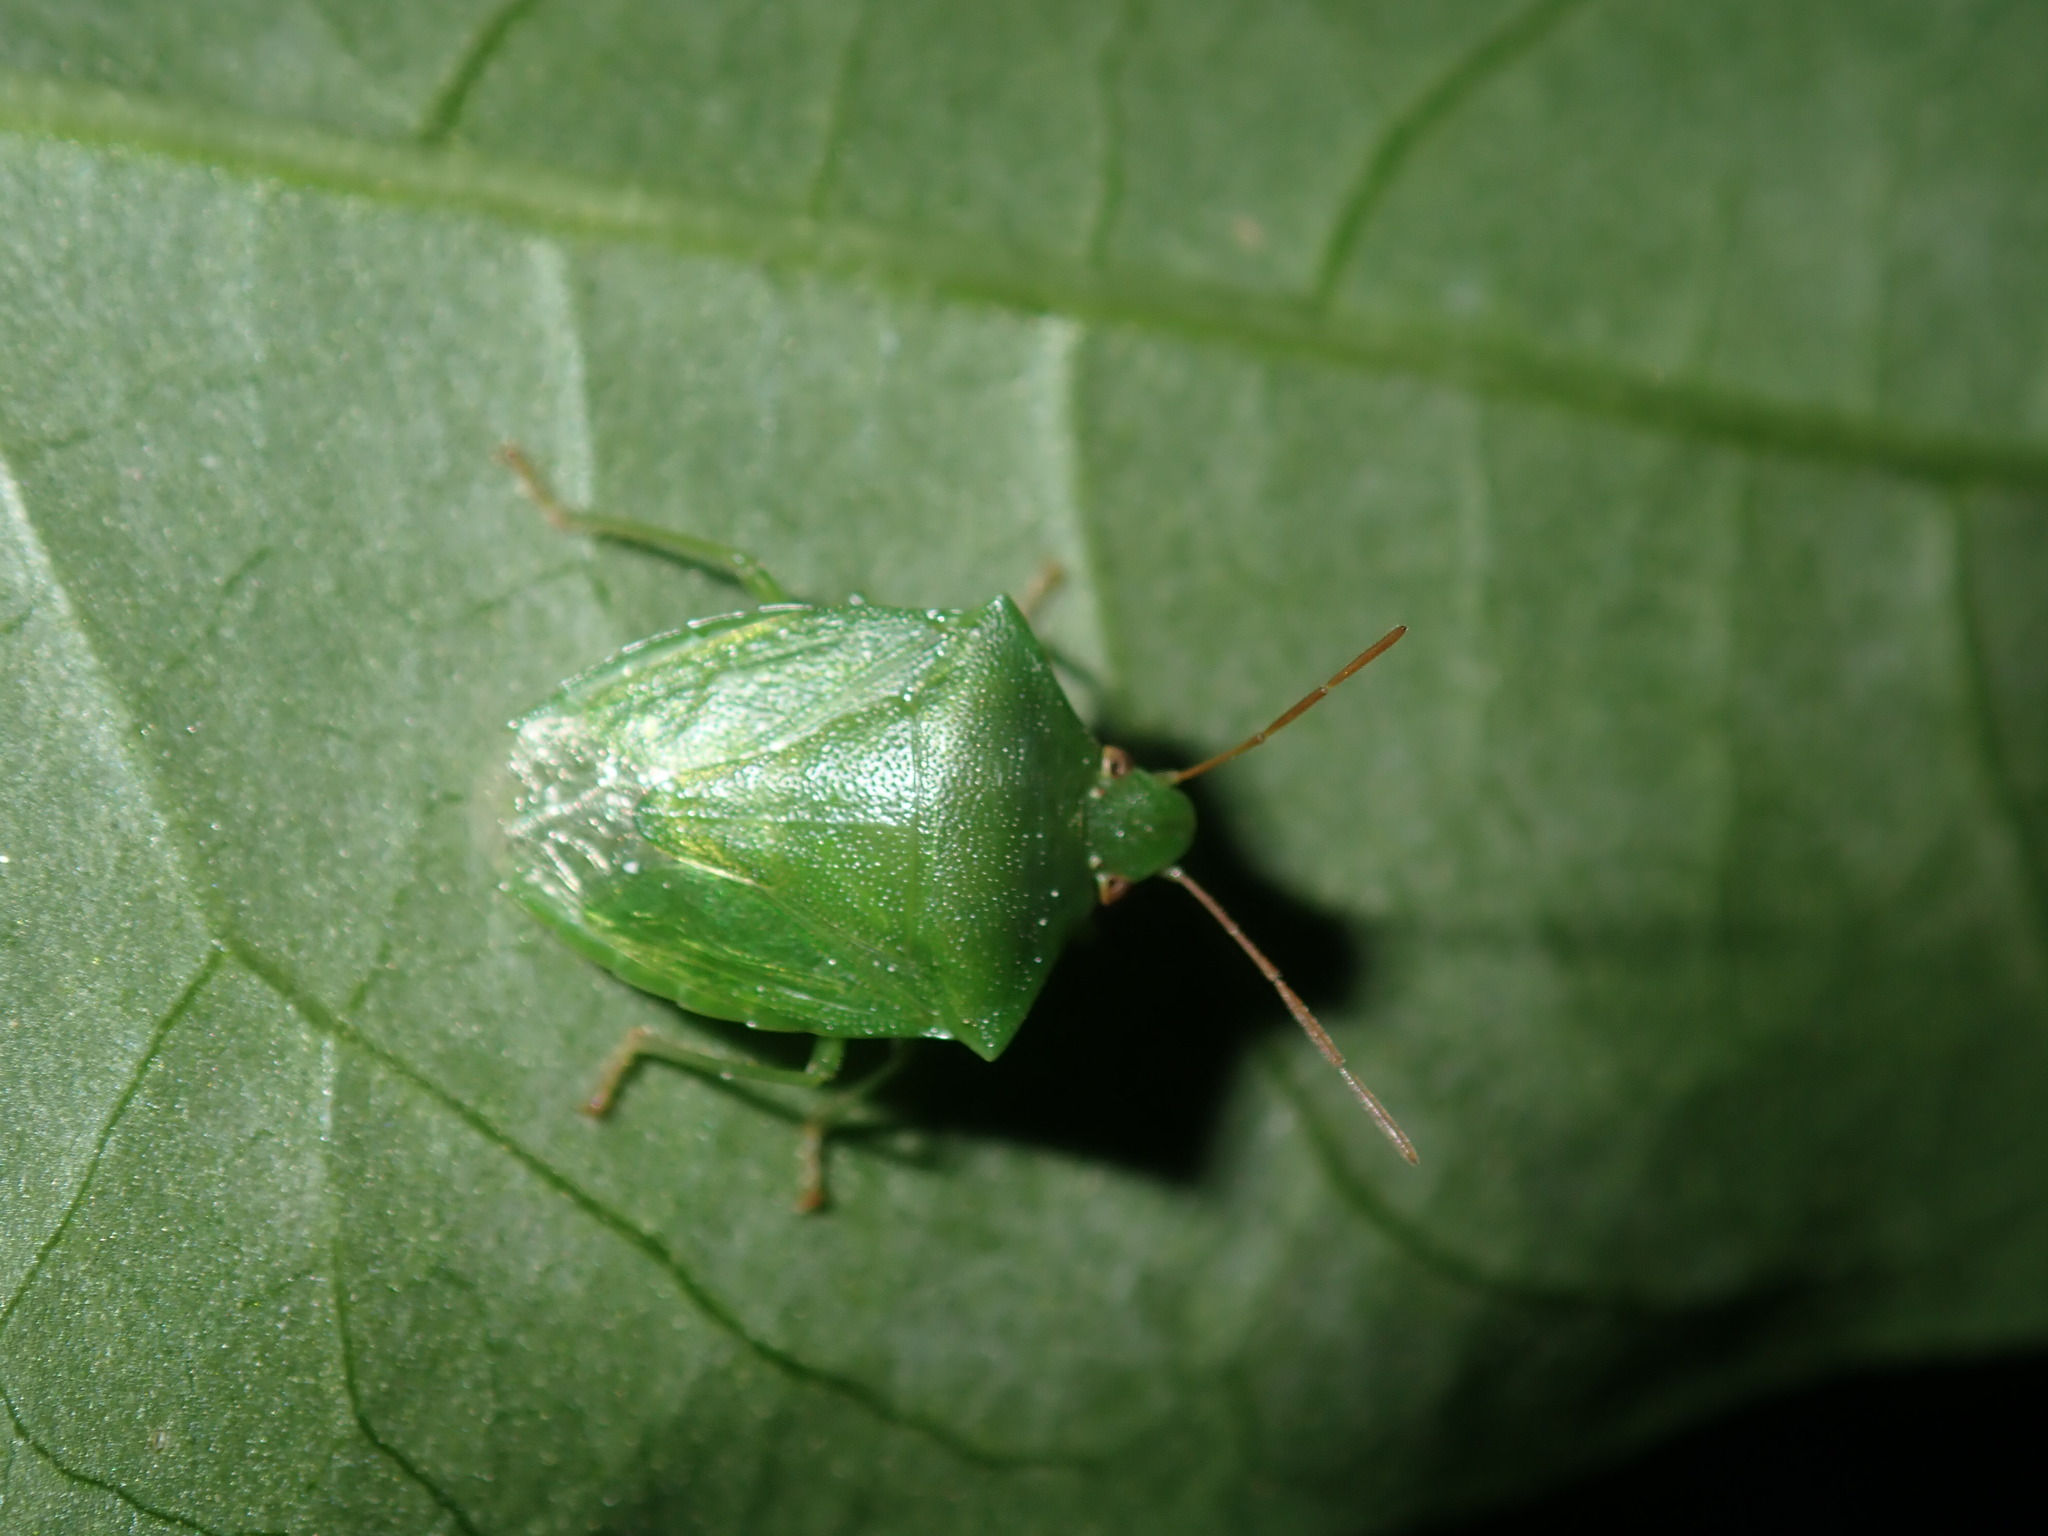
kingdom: Animalia
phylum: Arthropoda
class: Insecta
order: Hemiptera
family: Pentatomidae
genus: Cuspicona
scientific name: Cuspicona simplex
